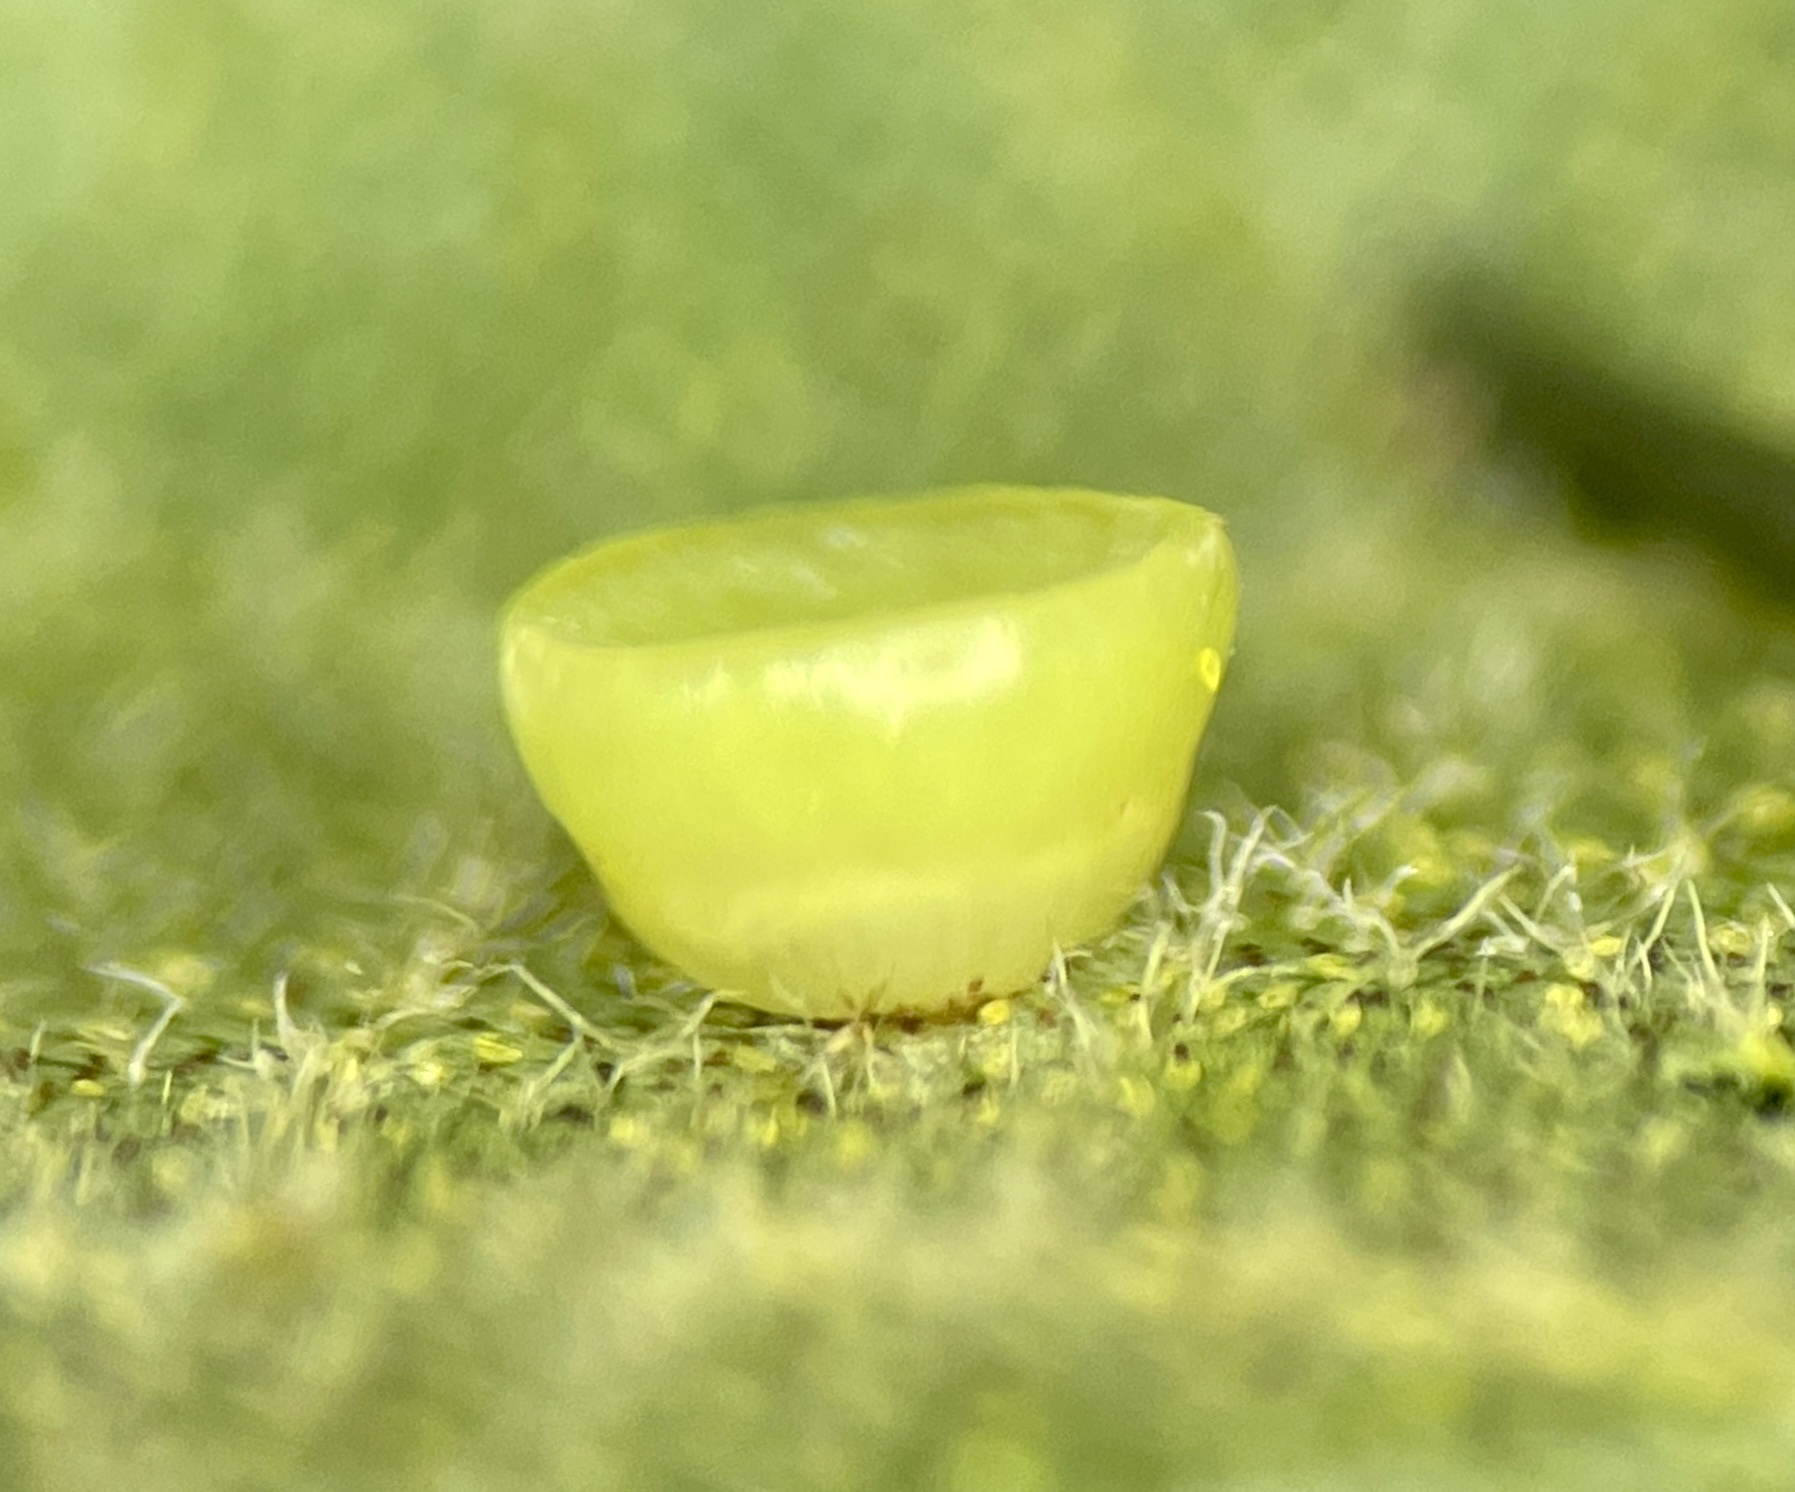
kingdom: Animalia
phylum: Arthropoda
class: Insecta
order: Diptera
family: Cecidomyiidae
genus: Caryomyia
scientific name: Caryomyia flaticrustum
